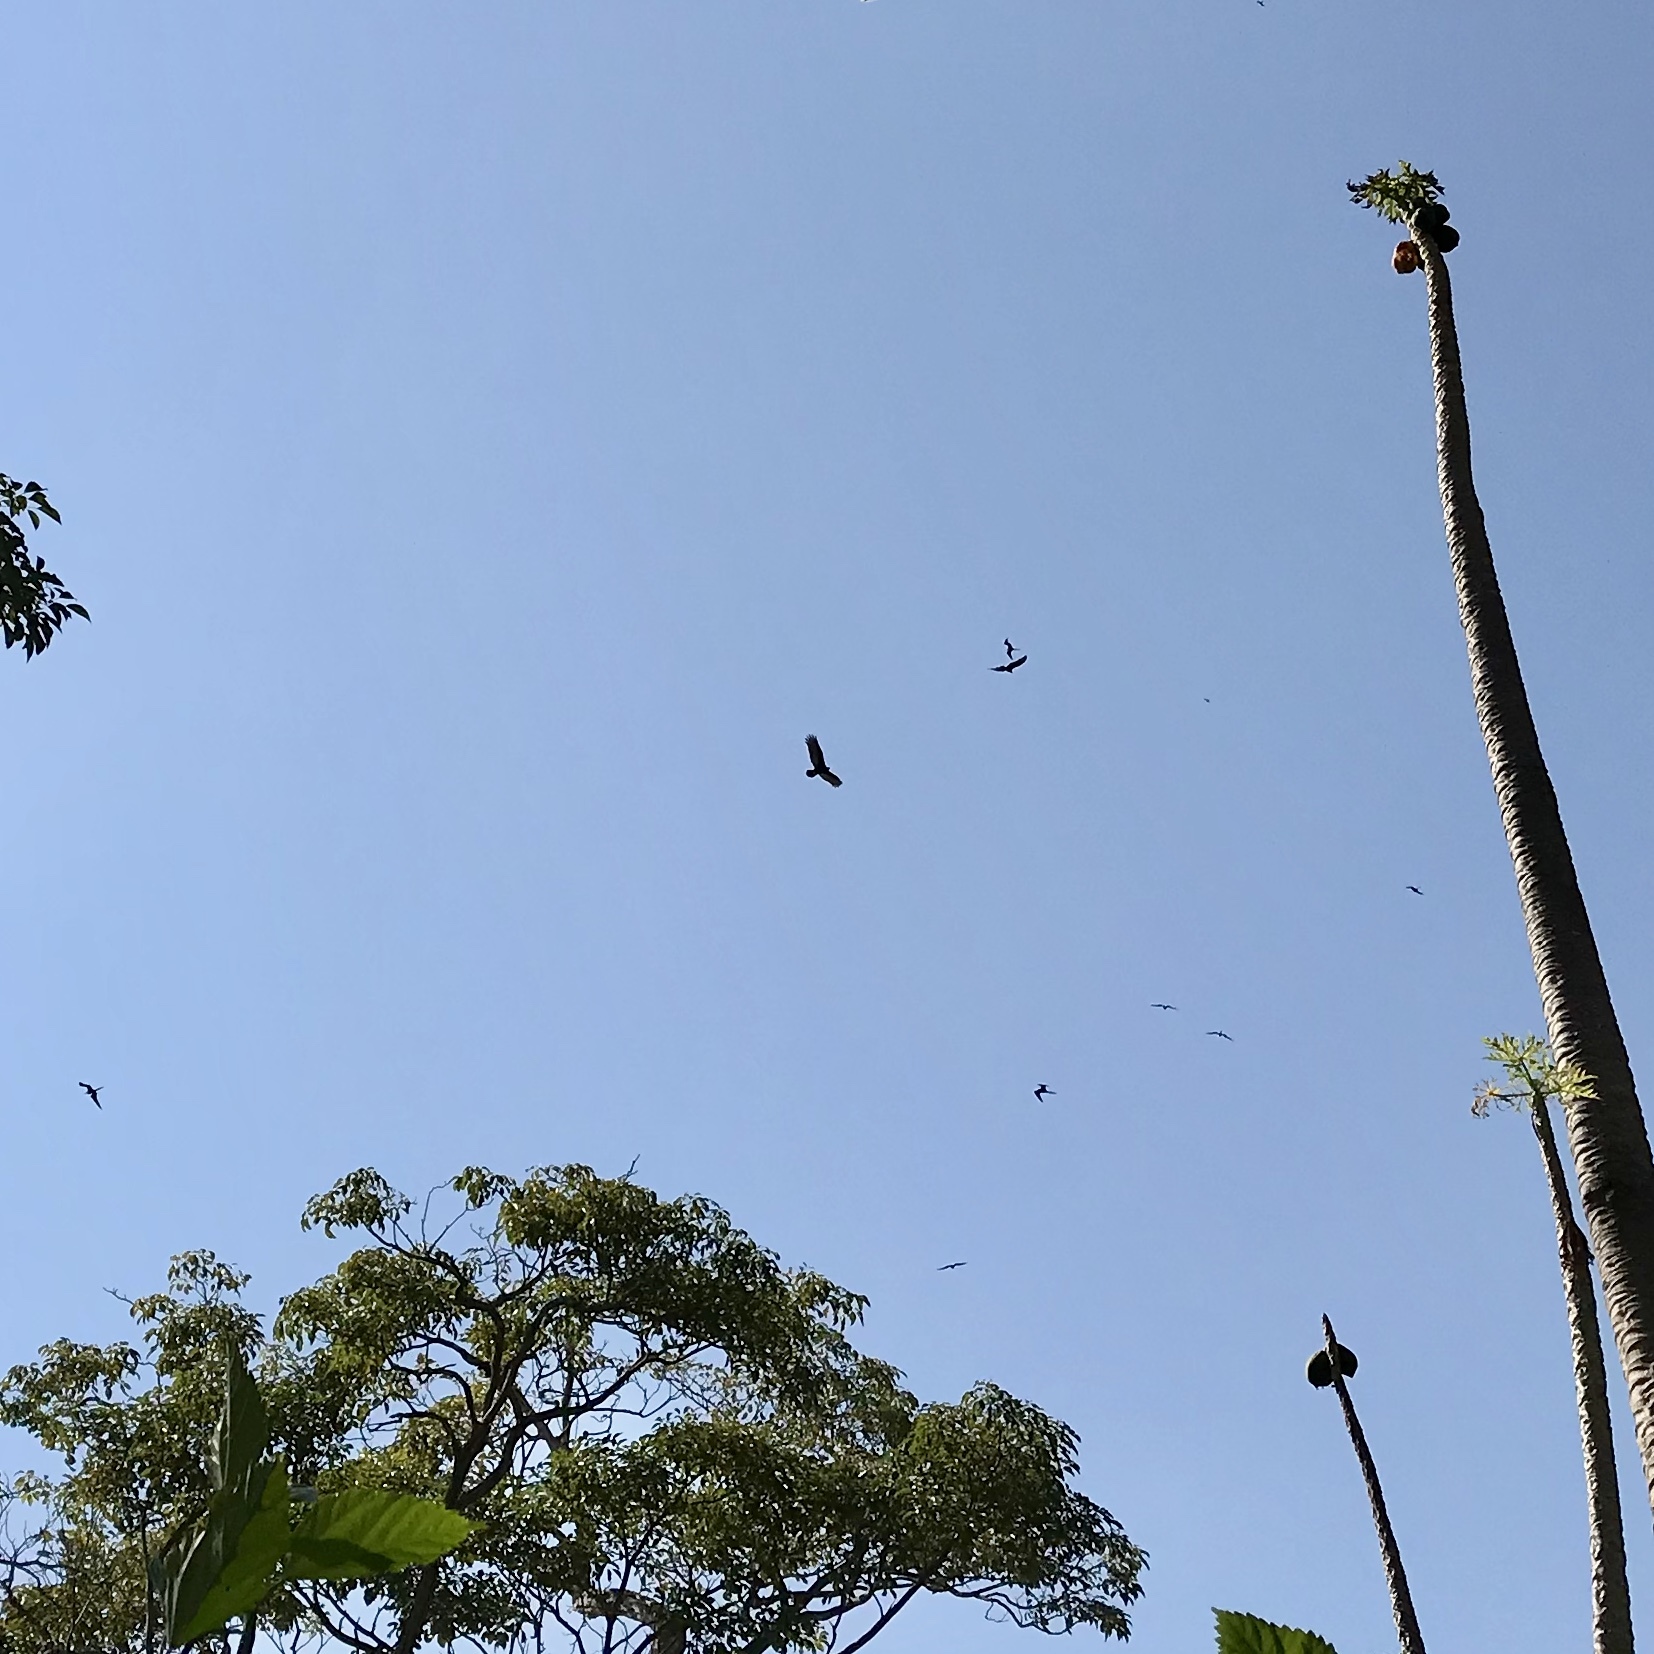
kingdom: Animalia
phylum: Chordata
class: Aves
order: Accipitriformes
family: Cathartidae
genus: Cathartes
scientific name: Cathartes aura
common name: Turkey vulture
